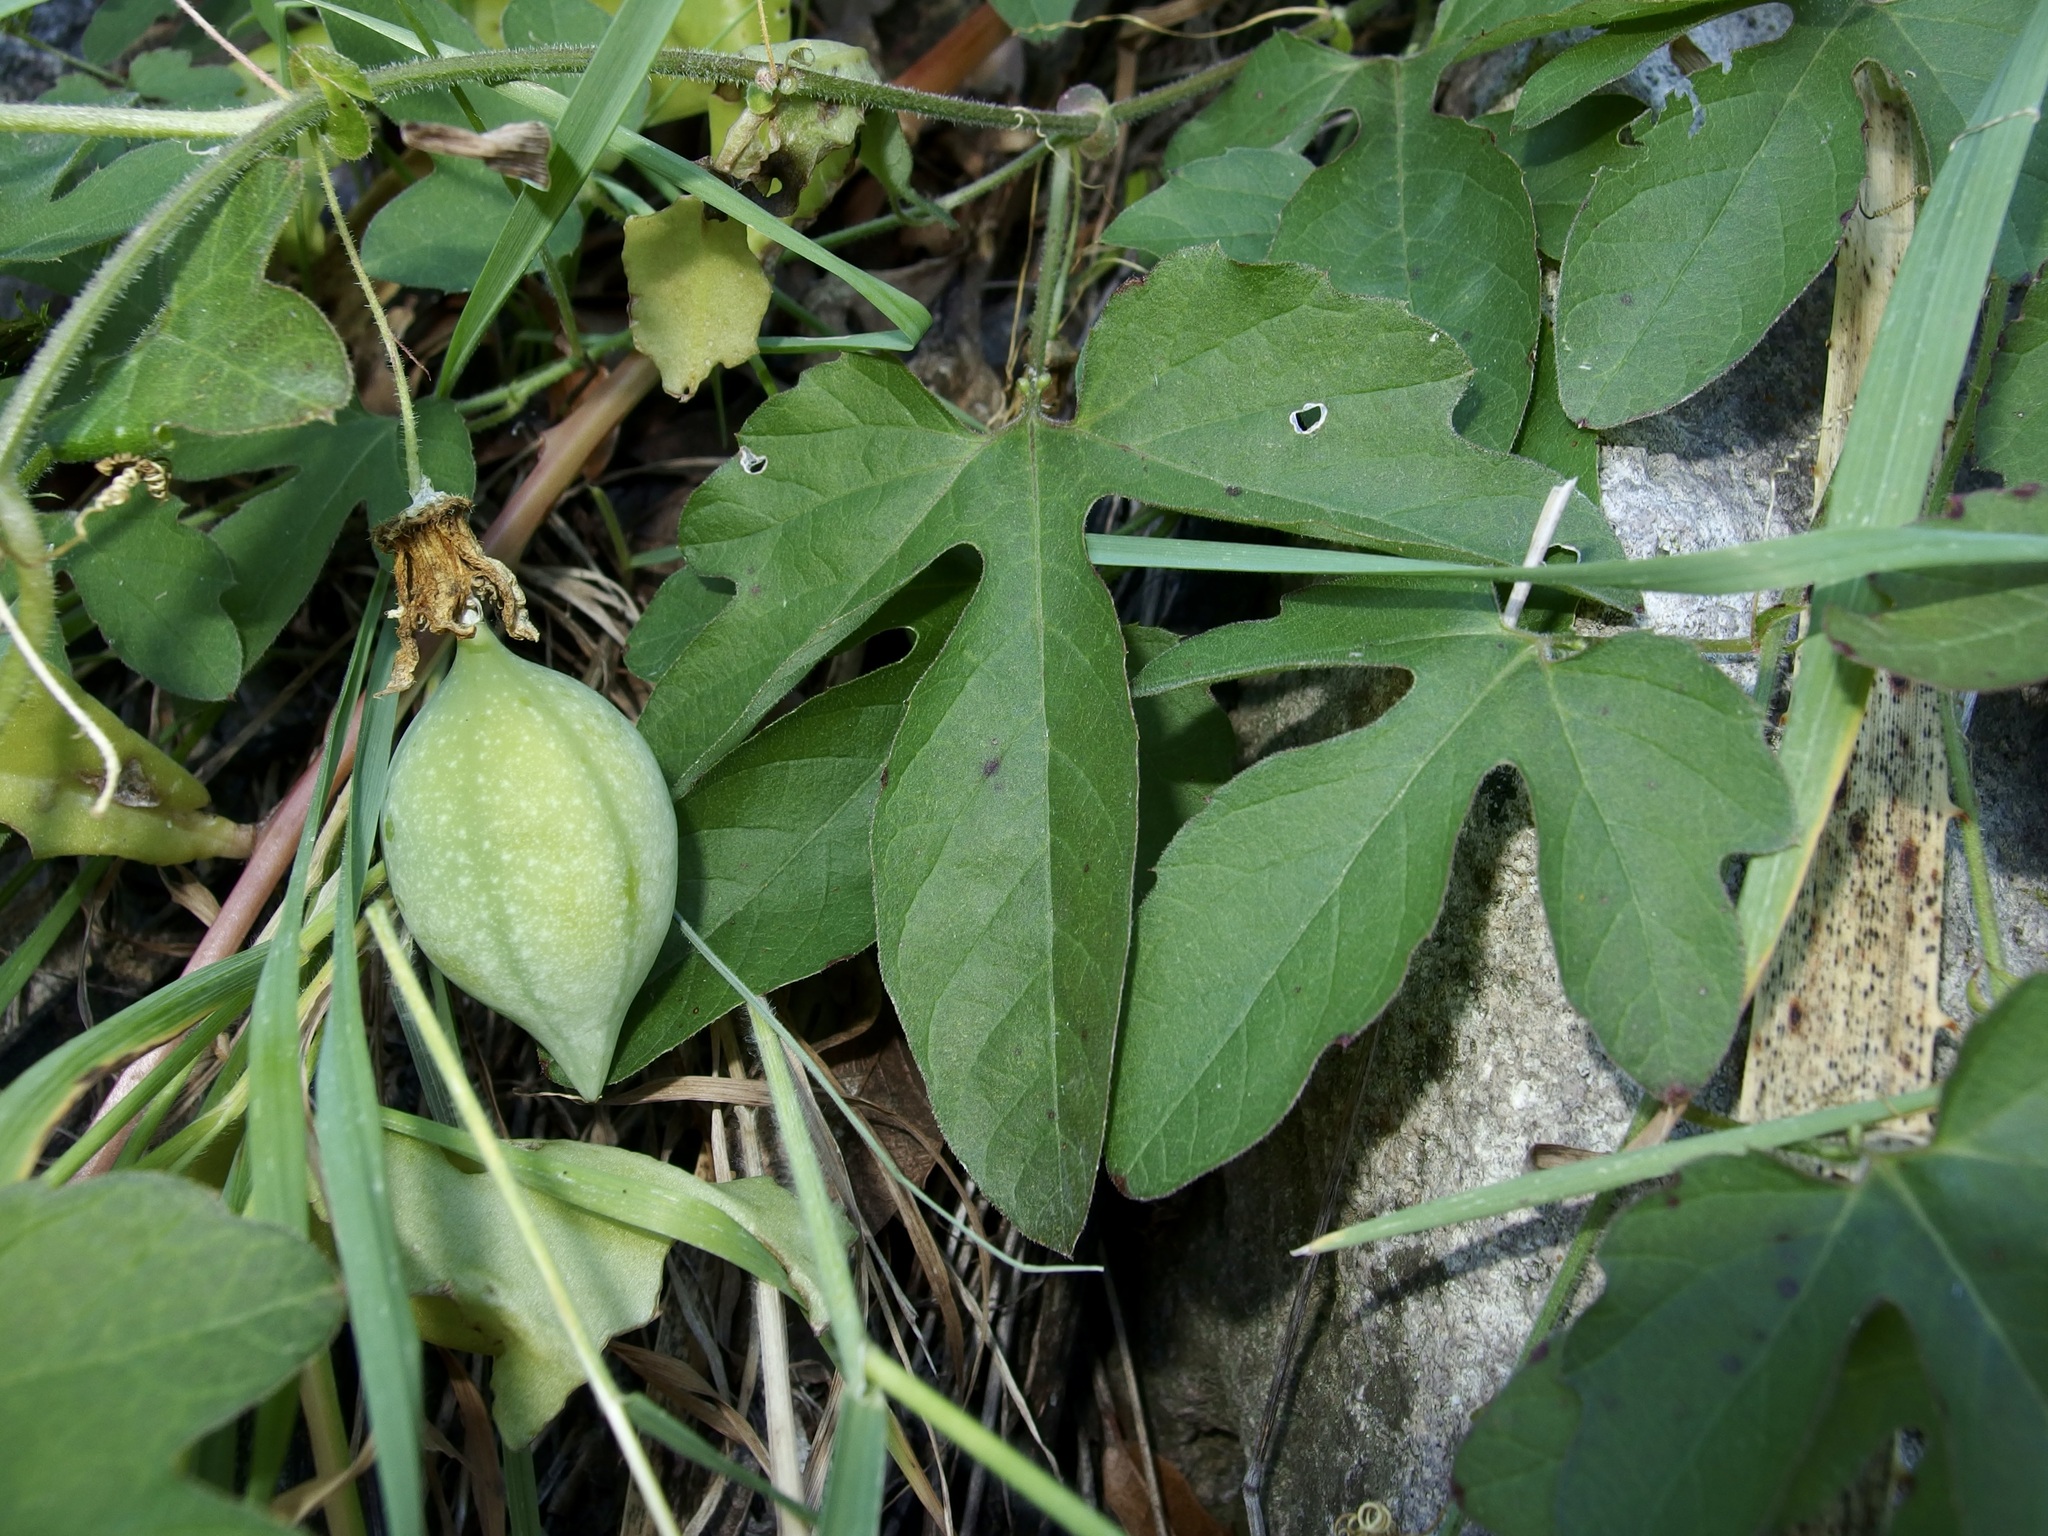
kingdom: Plantae
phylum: Tracheophyta
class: Magnoliopsida
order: Malpighiales
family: Passifloraceae
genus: Passiflora
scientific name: Passiflora bryonioides
